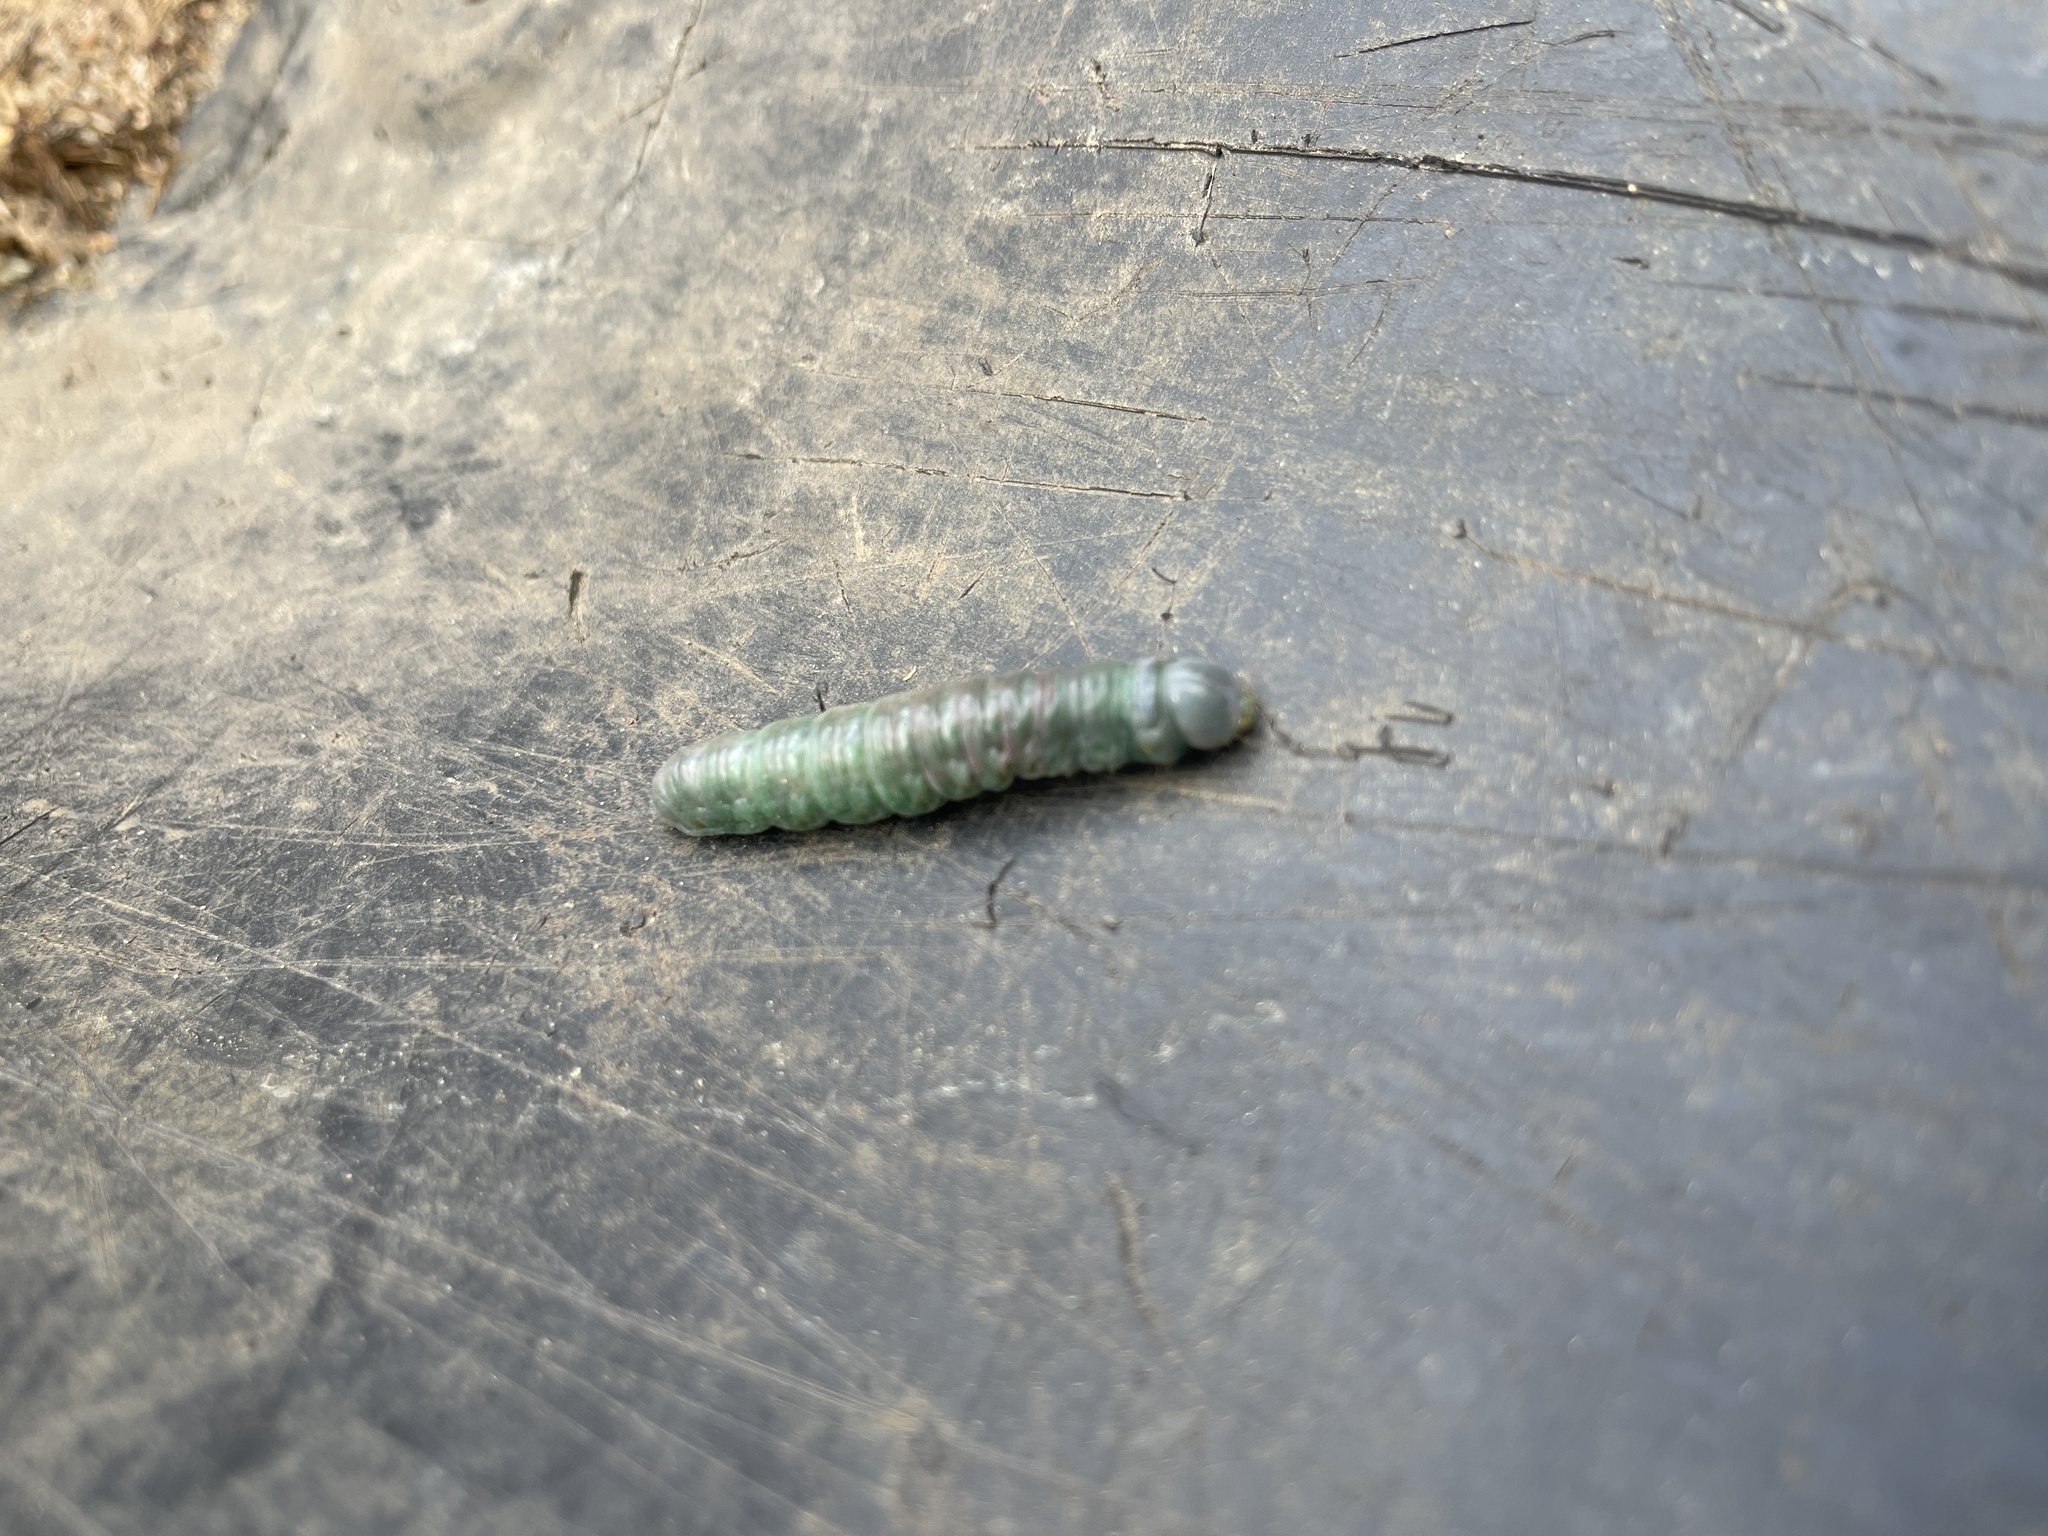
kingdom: Animalia
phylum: Arthropoda
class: Insecta
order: Lepidoptera
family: Notodontidae
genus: Nadata
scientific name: Nadata gibbosa
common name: White-dotted prominent
